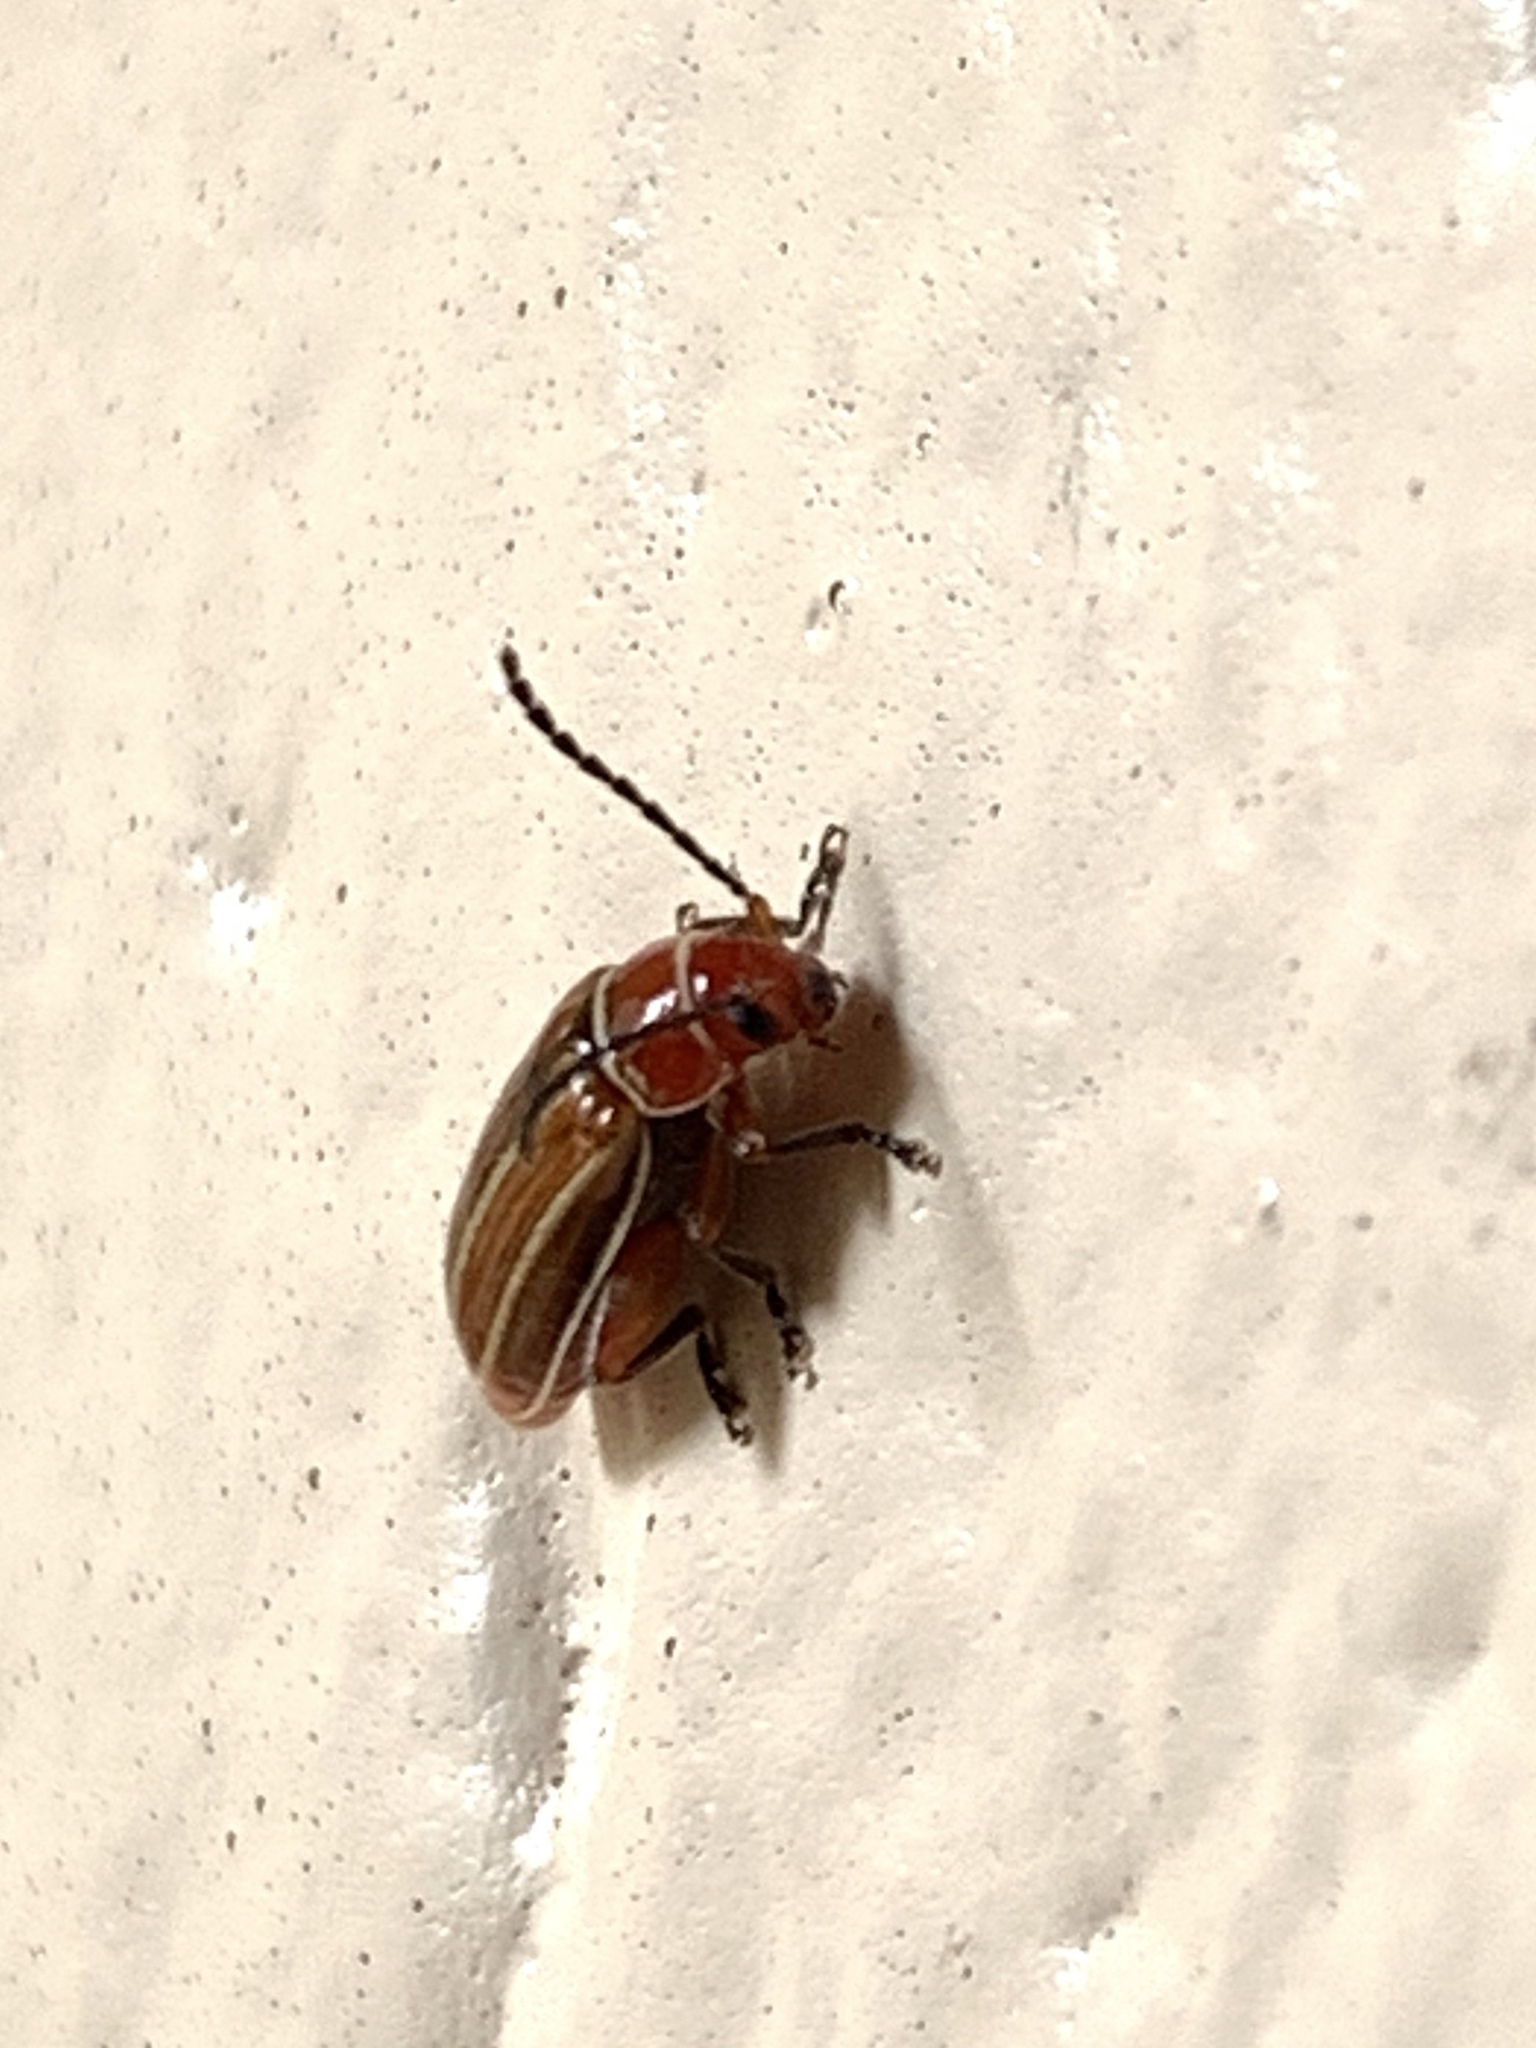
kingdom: Animalia
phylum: Arthropoda
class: Insecta
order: Coleoptera
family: Chrysomelidae
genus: Disonycha
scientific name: Disonycha conjugata
